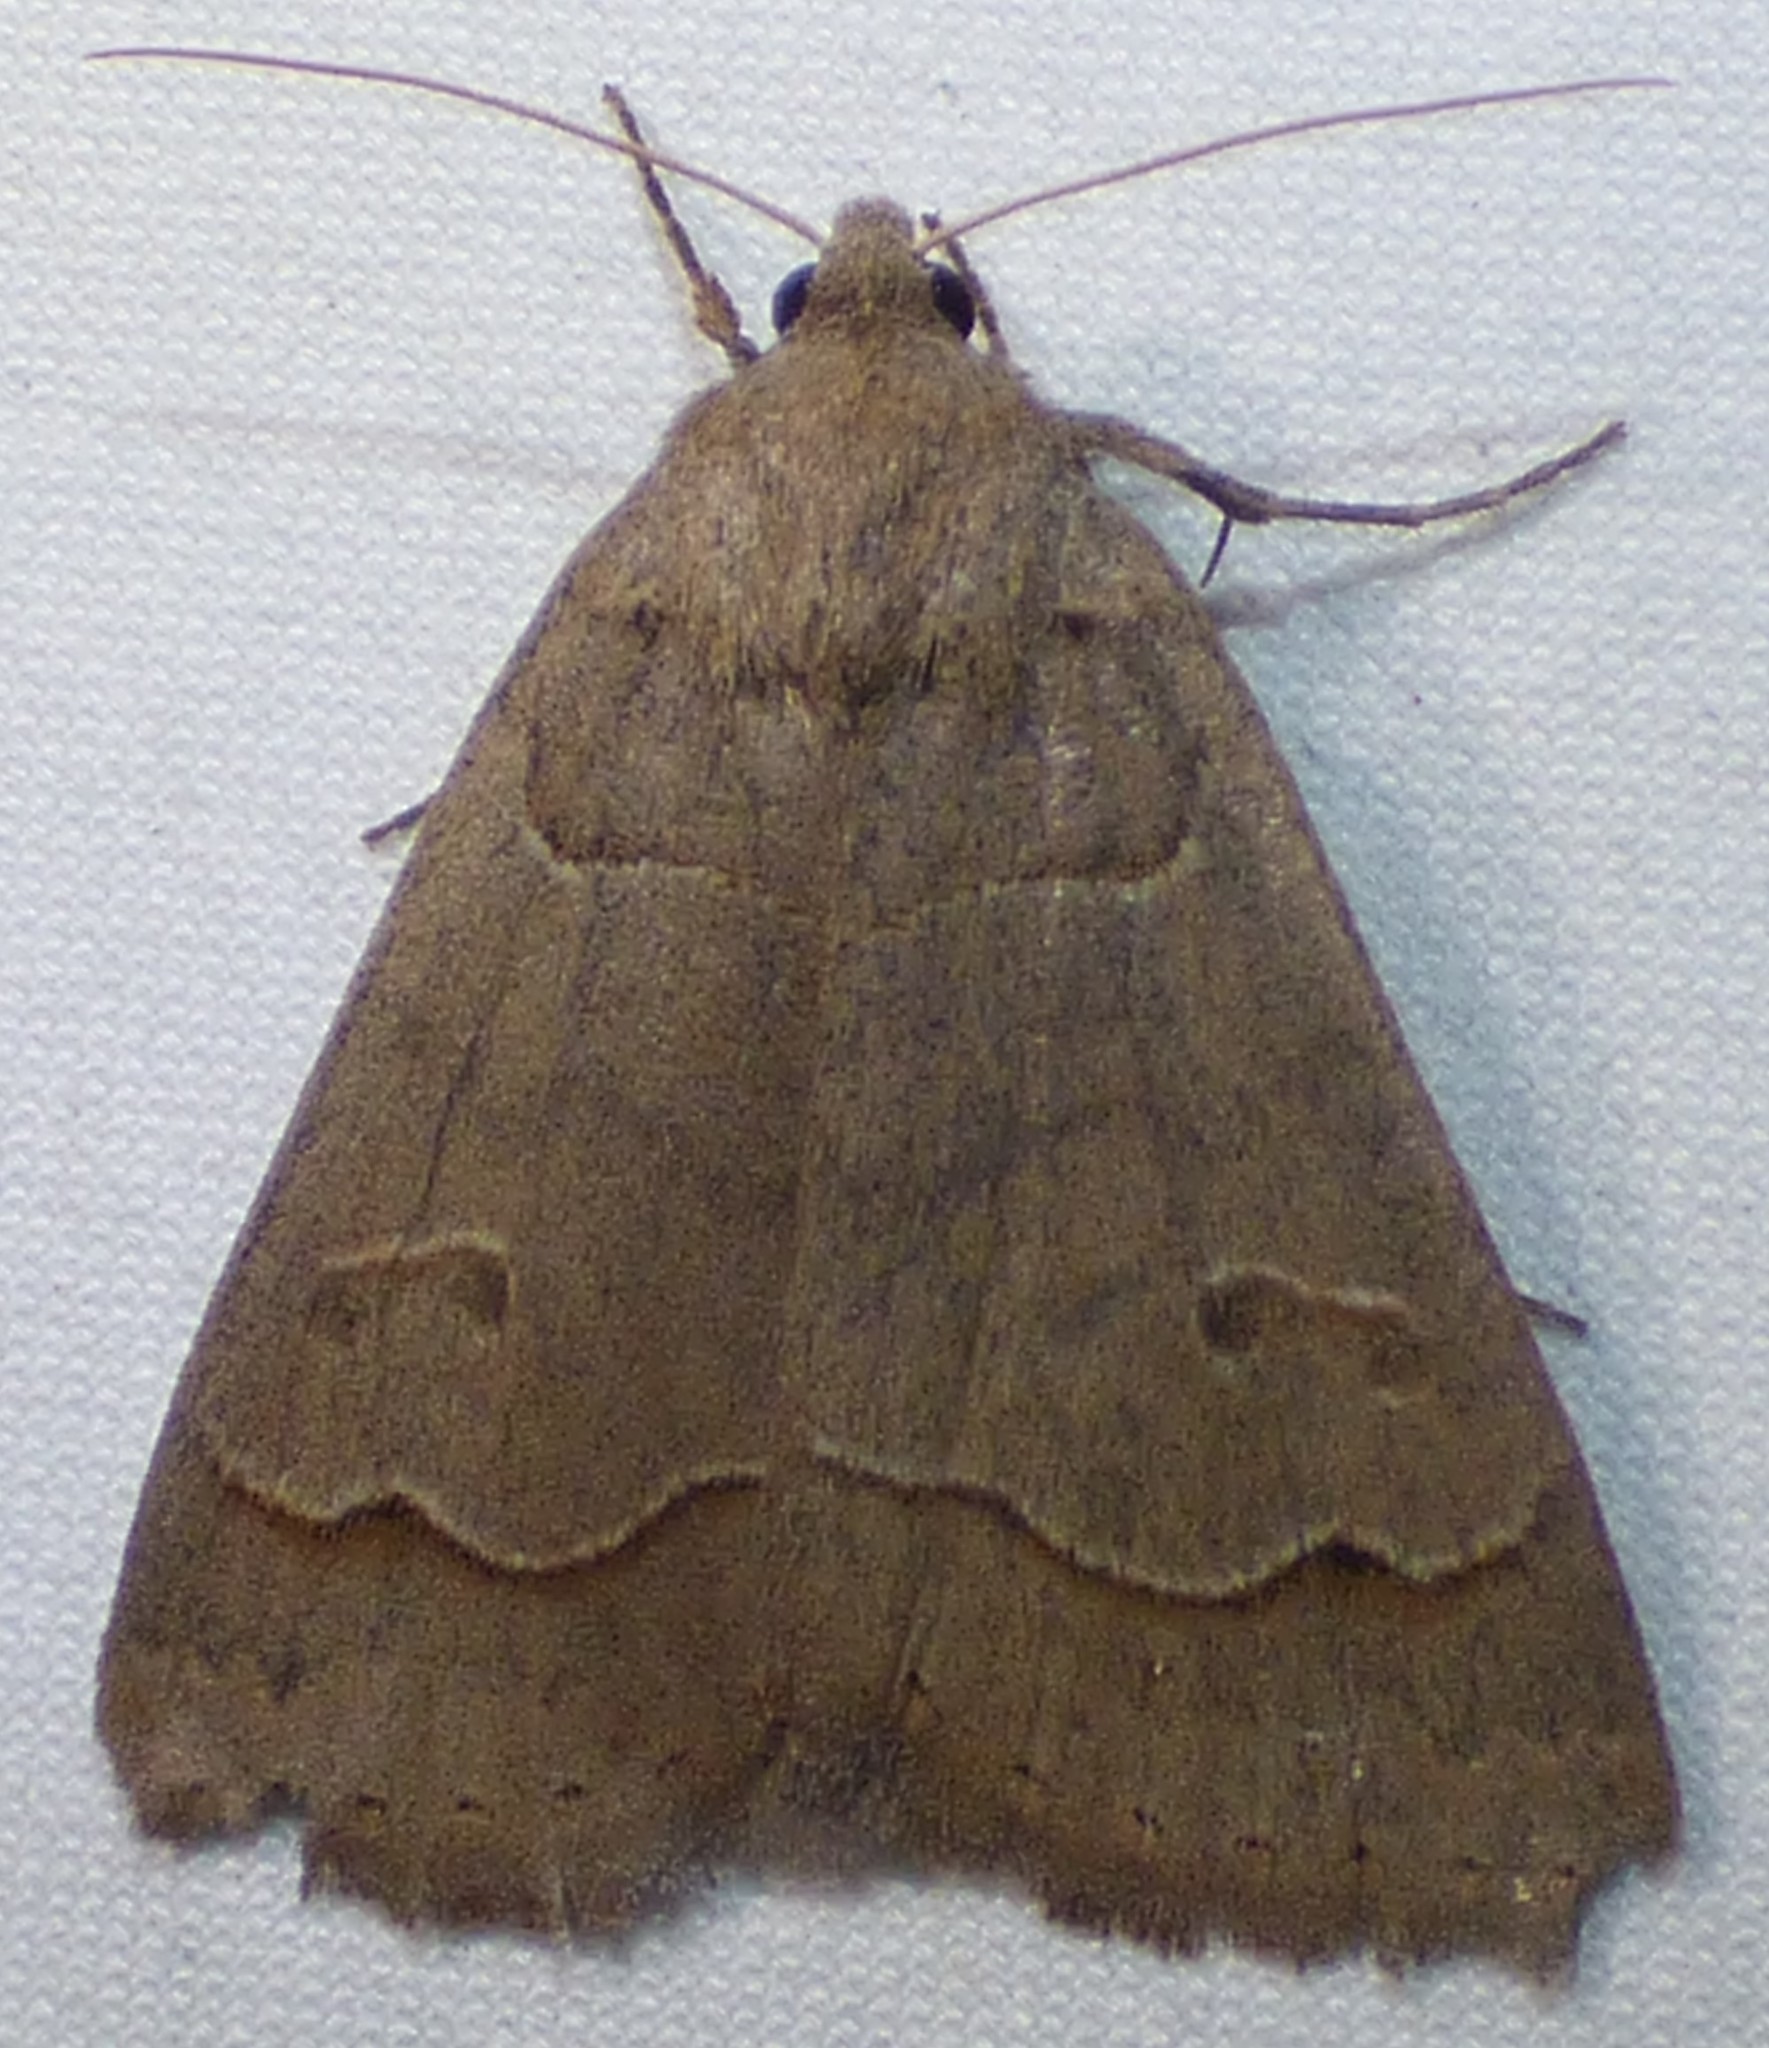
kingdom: Animalia
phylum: Arthropoda
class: Insecta
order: Lepidoptera
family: Erebidae
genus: Phoberia
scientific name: Phoberia atomaris
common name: Common oak moth
